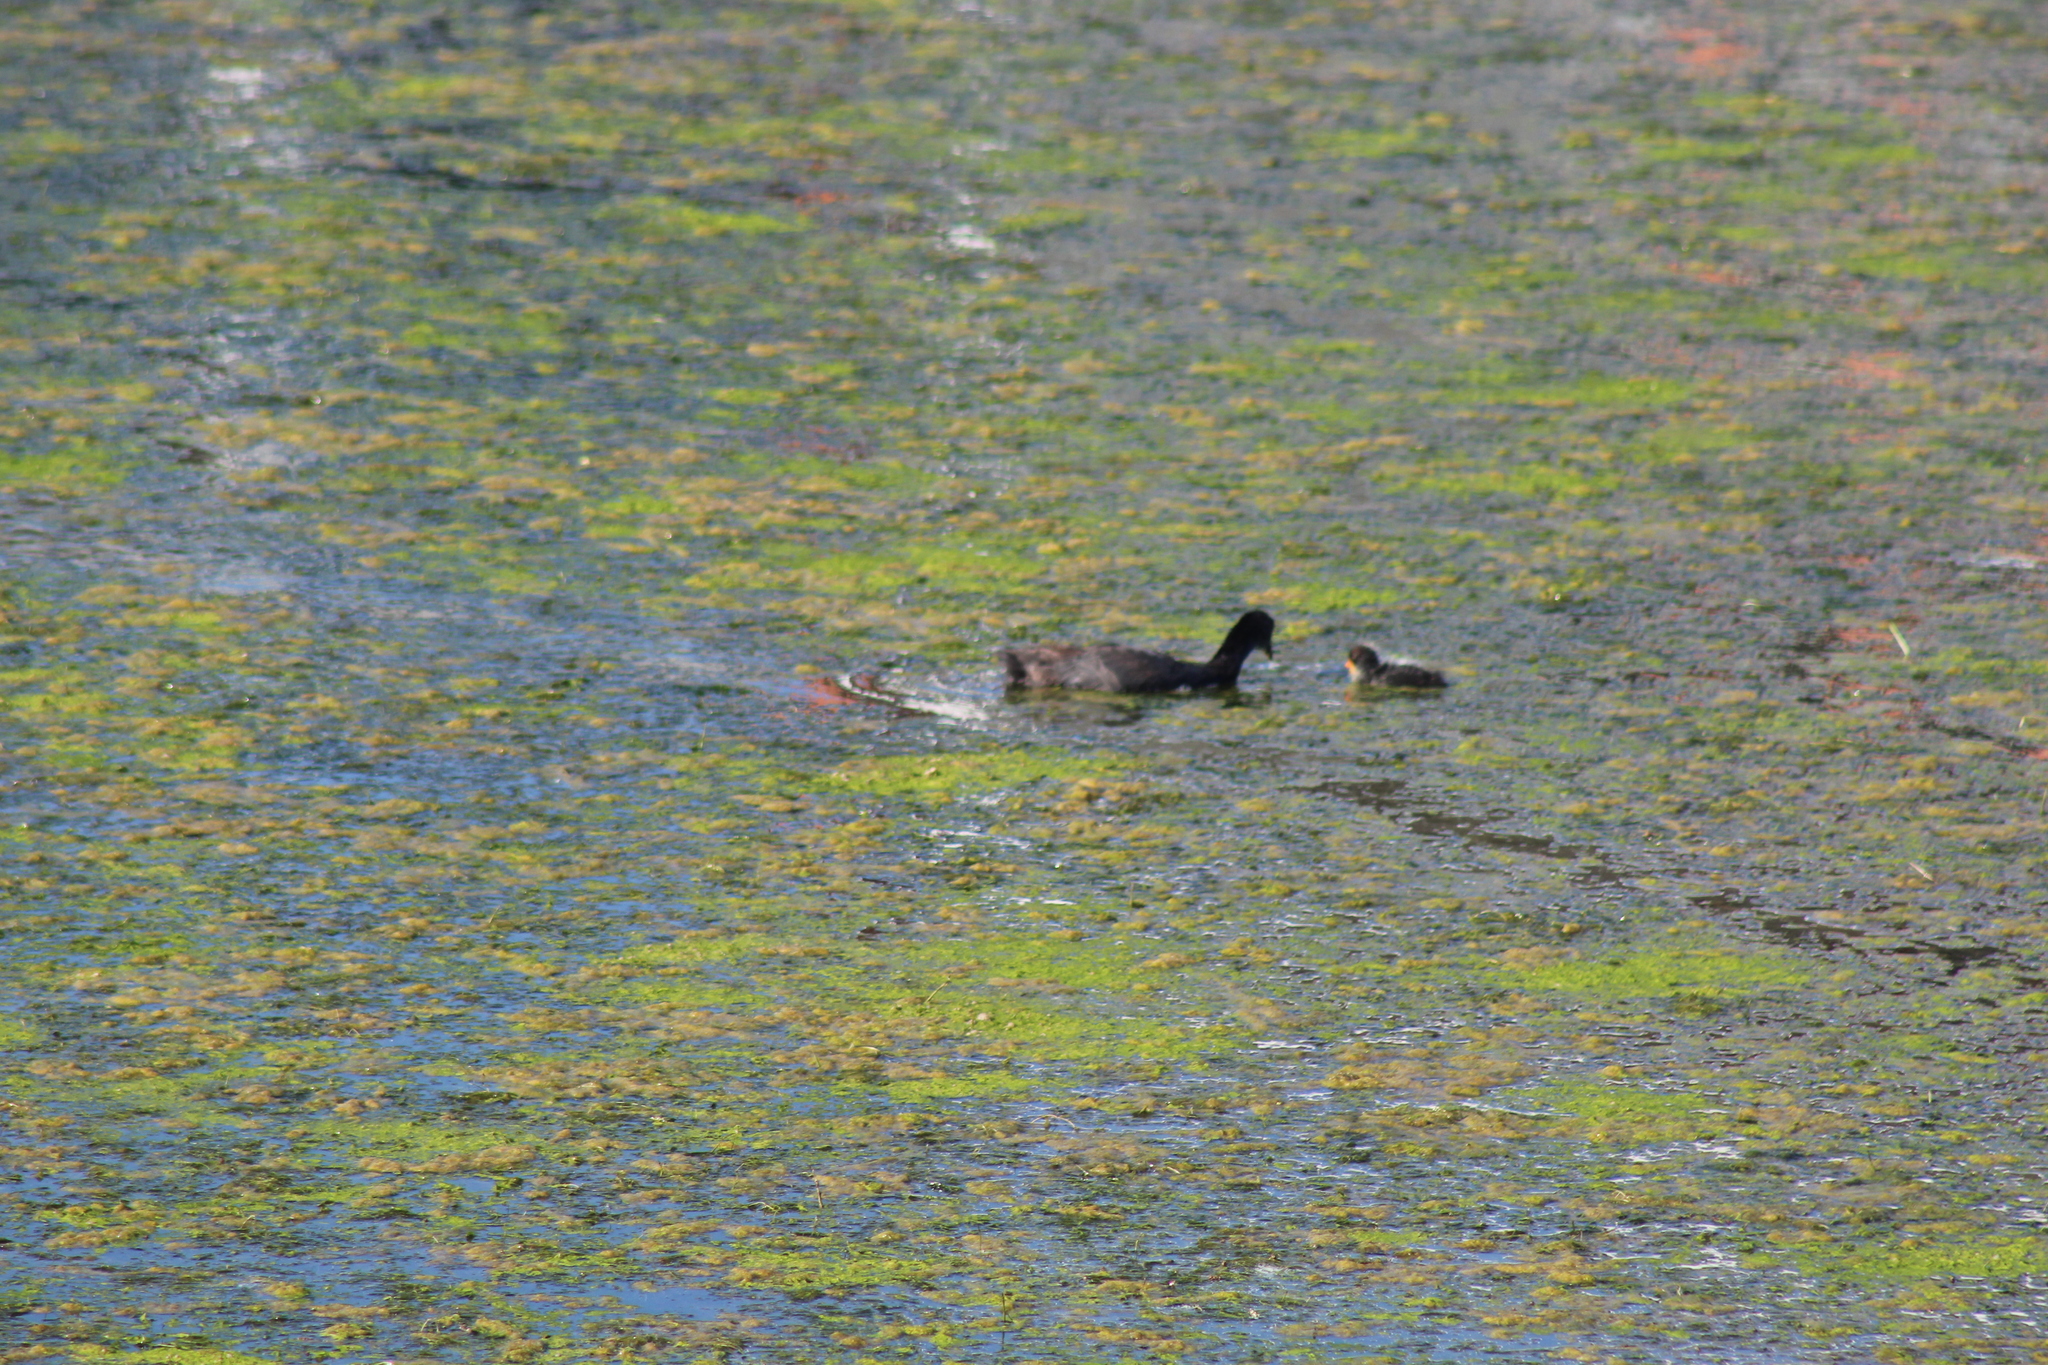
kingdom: Animalia
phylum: Chordata
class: Aves
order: Gruiformes
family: Rallidae
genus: Fulica
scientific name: Fulica cristata
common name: Red-knobbed coot
